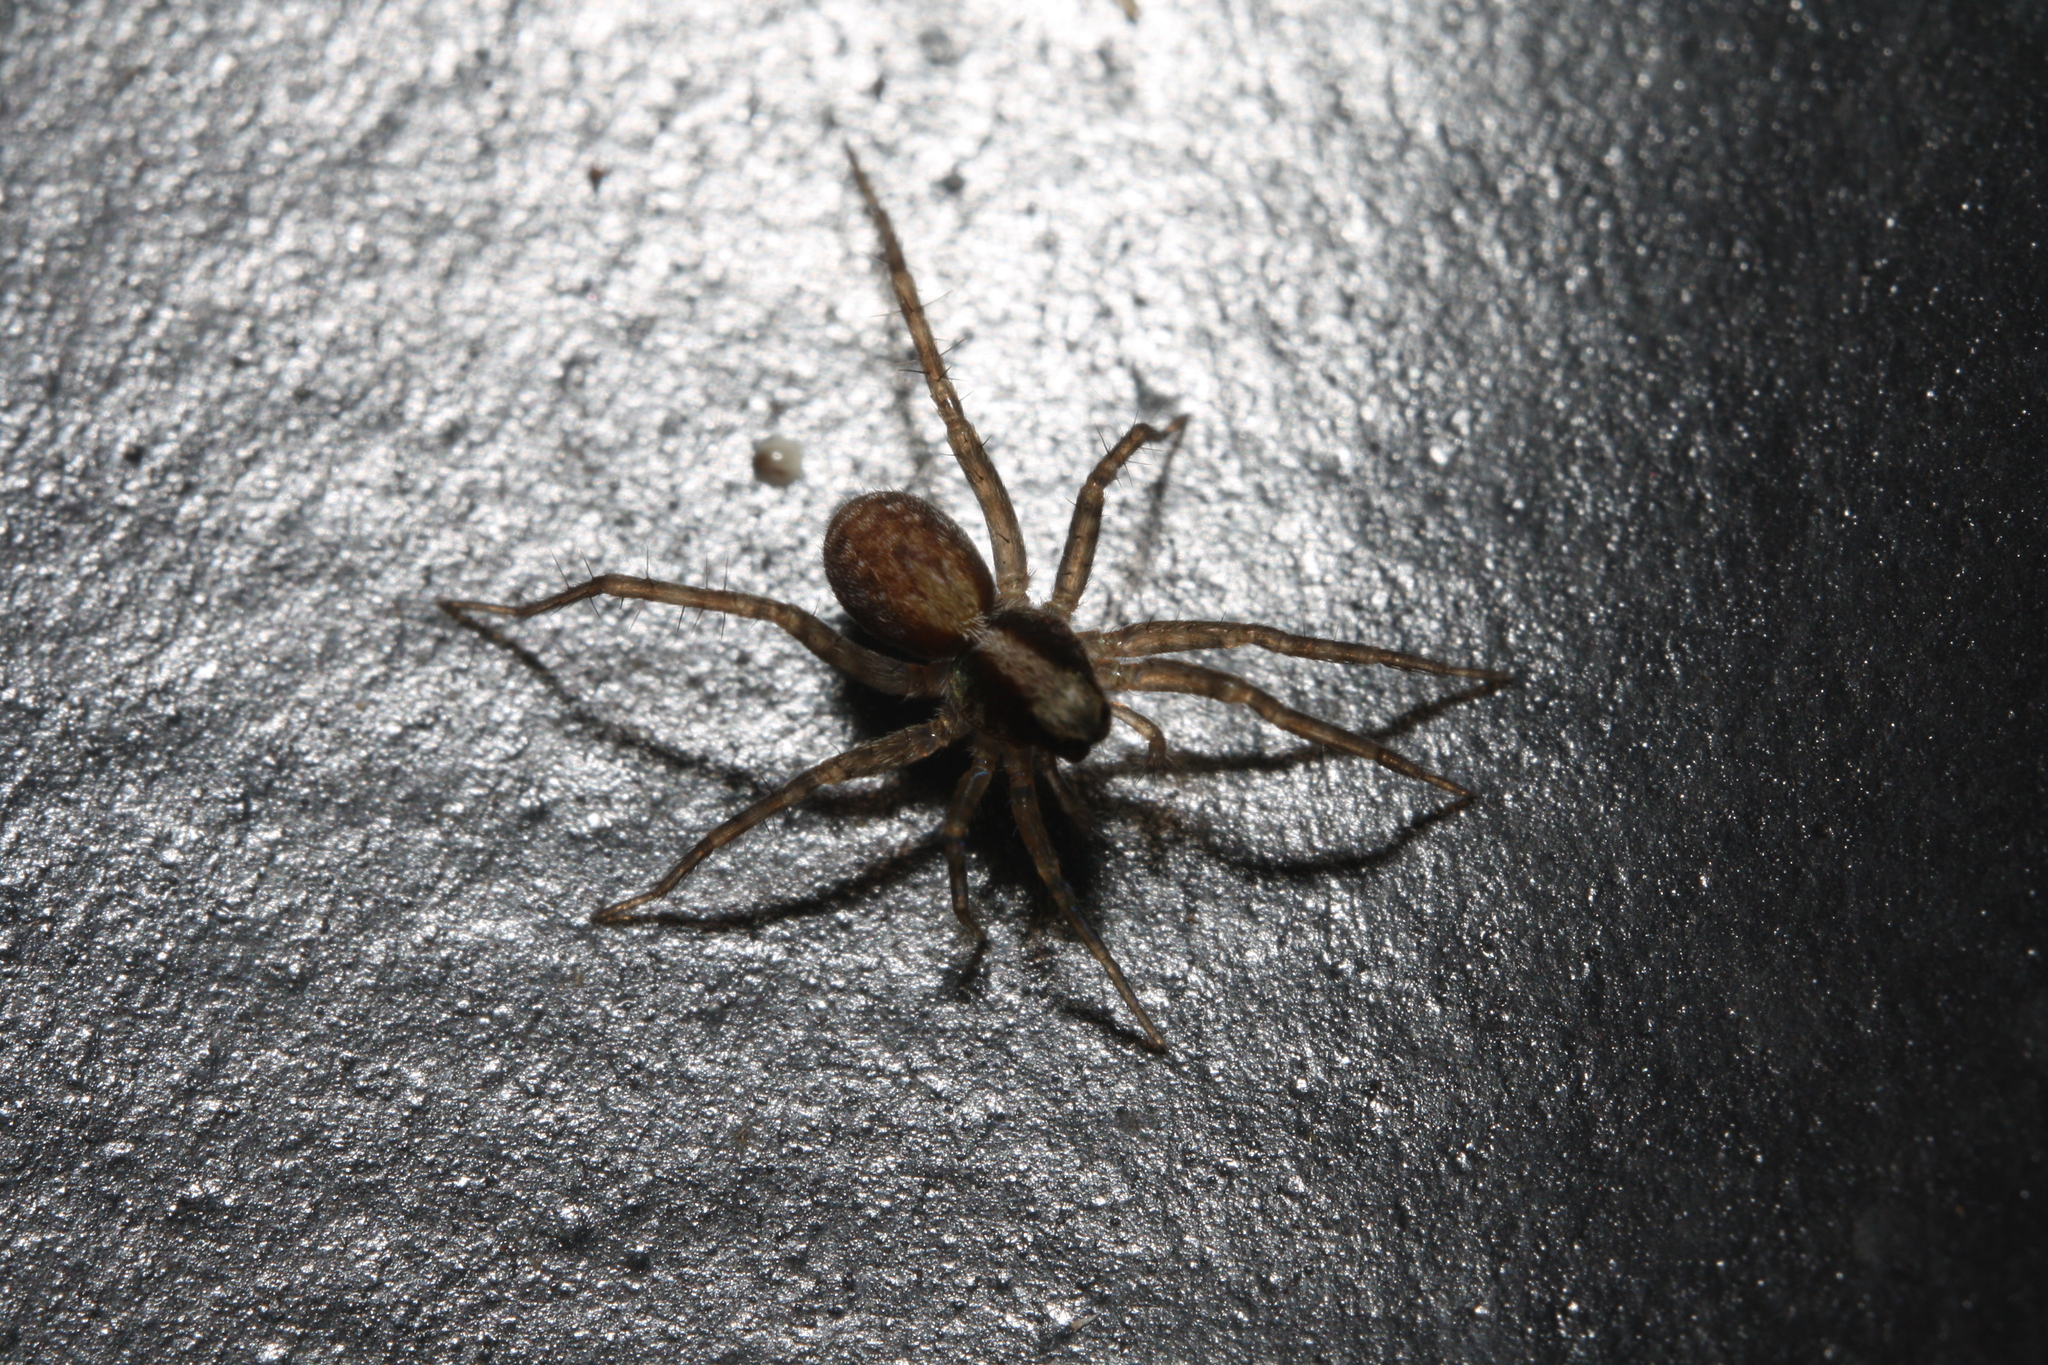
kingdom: Animalia
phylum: Arthropoda
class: Arachnida
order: Araneae
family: Lycosidae
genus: Pardosa
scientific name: Pardosa
